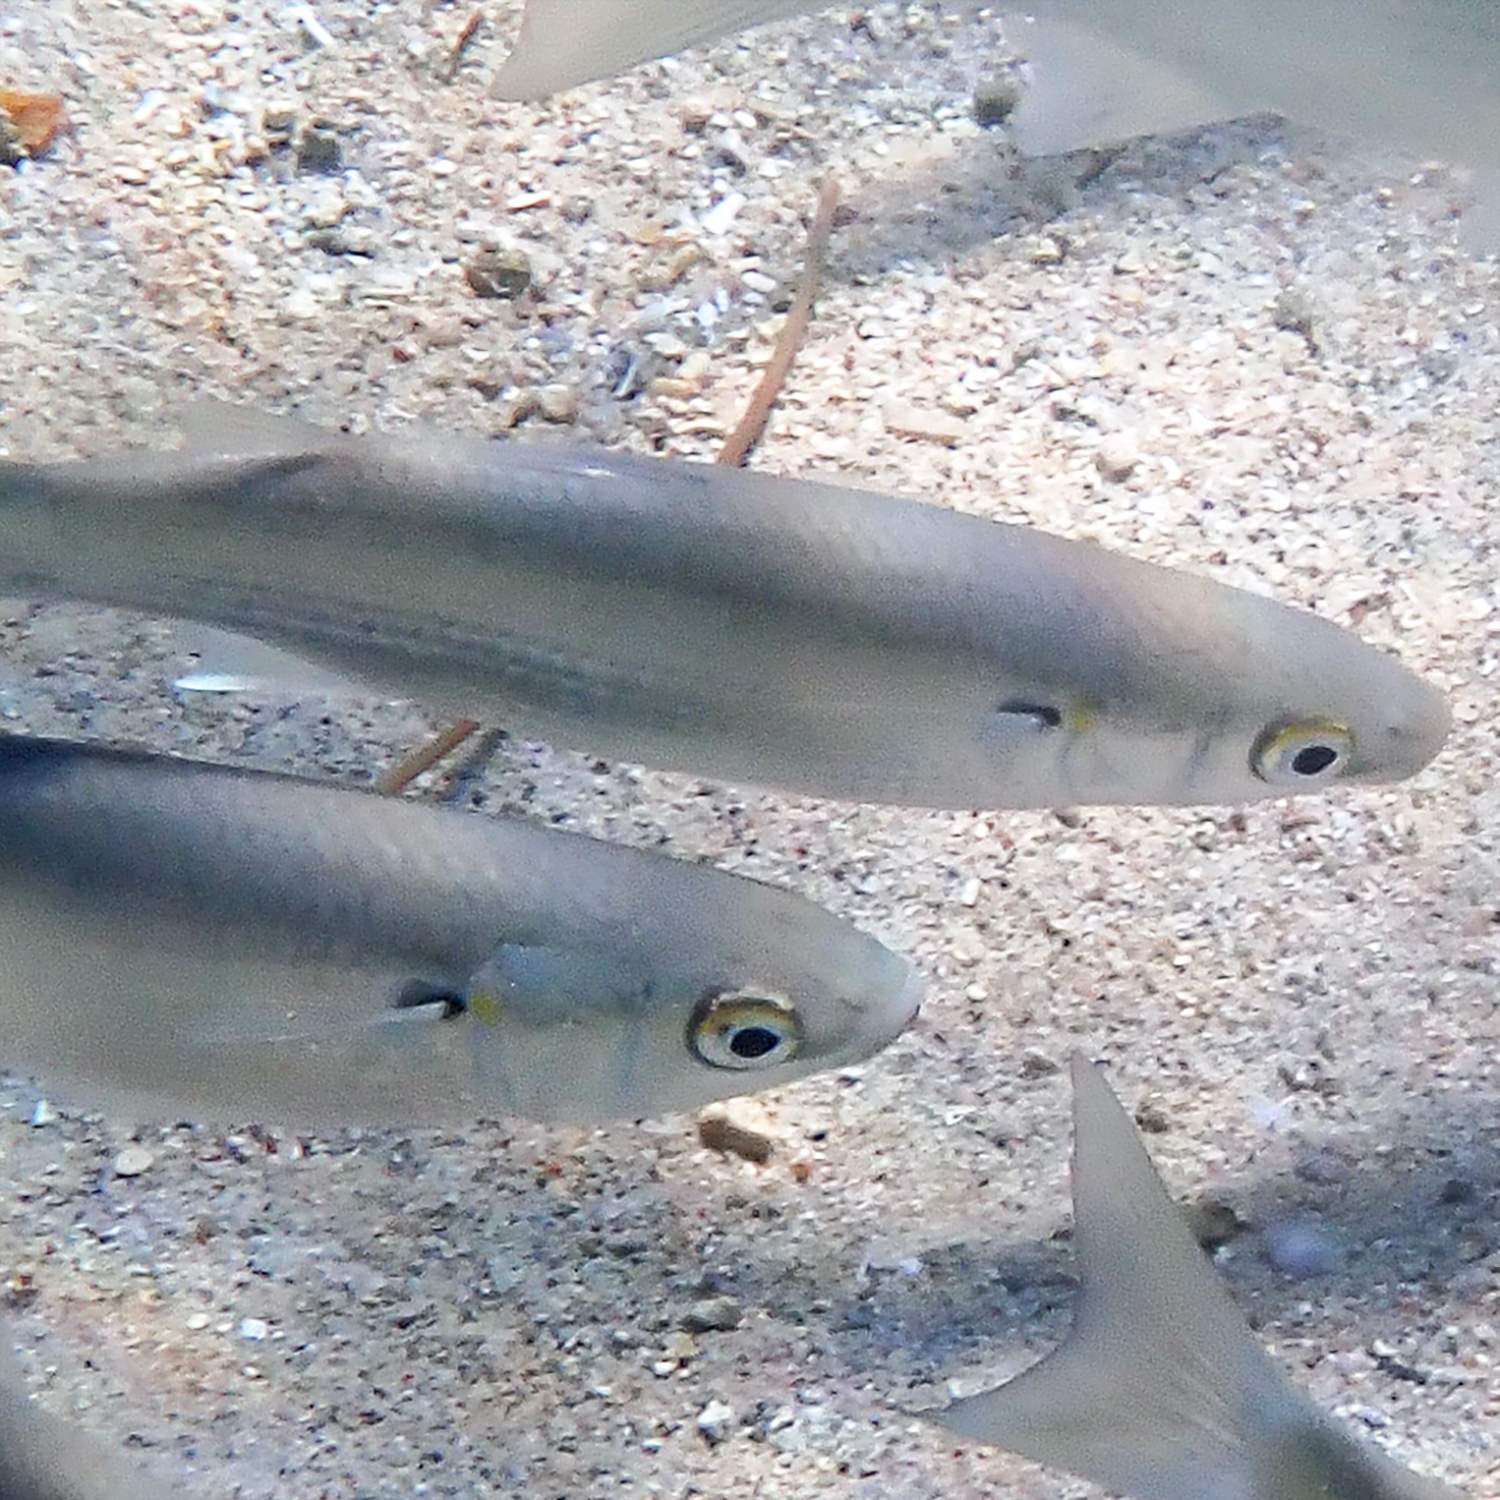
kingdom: Animalia
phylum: Chordata
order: Mugiliformes
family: Mugilidae
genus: Myxus
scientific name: Myxus elongatus
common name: Sand grey mullet
